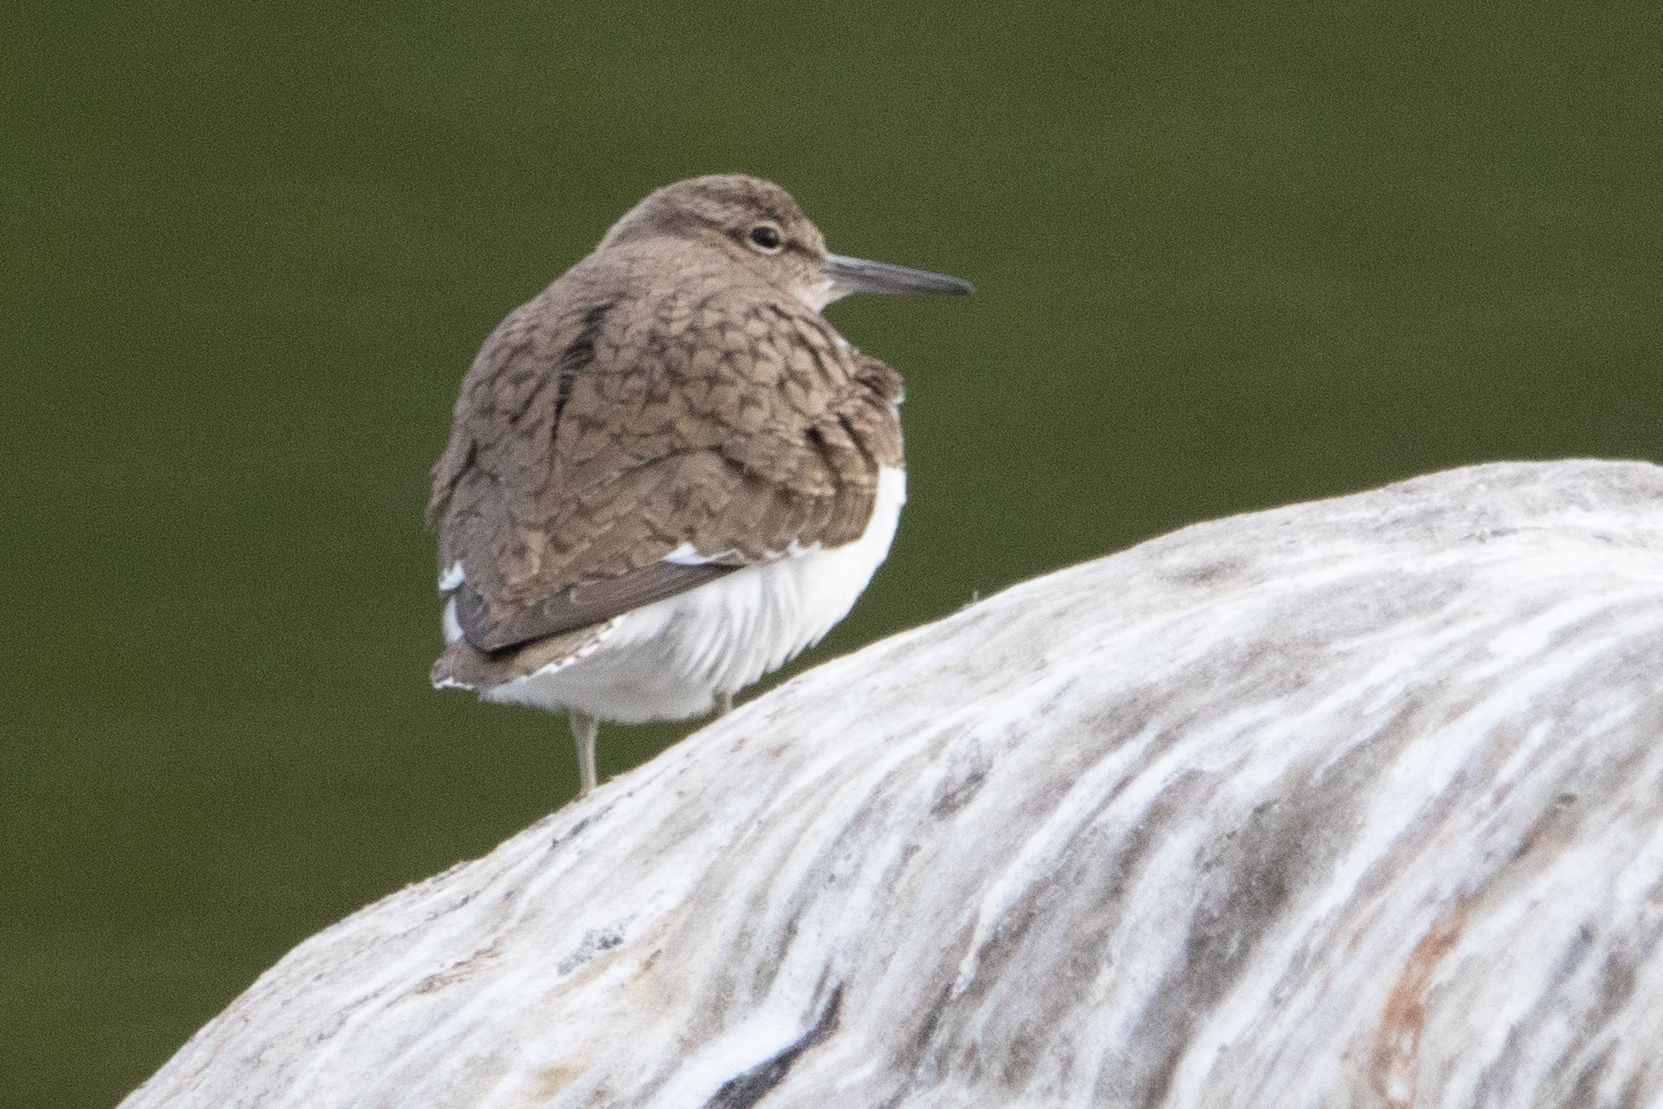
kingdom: Animalia
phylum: Chordata
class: Aves
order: Charadriiformes
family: Scolopacidae
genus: Actitis
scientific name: Actitis hypoleucos
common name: Common sandpiper
